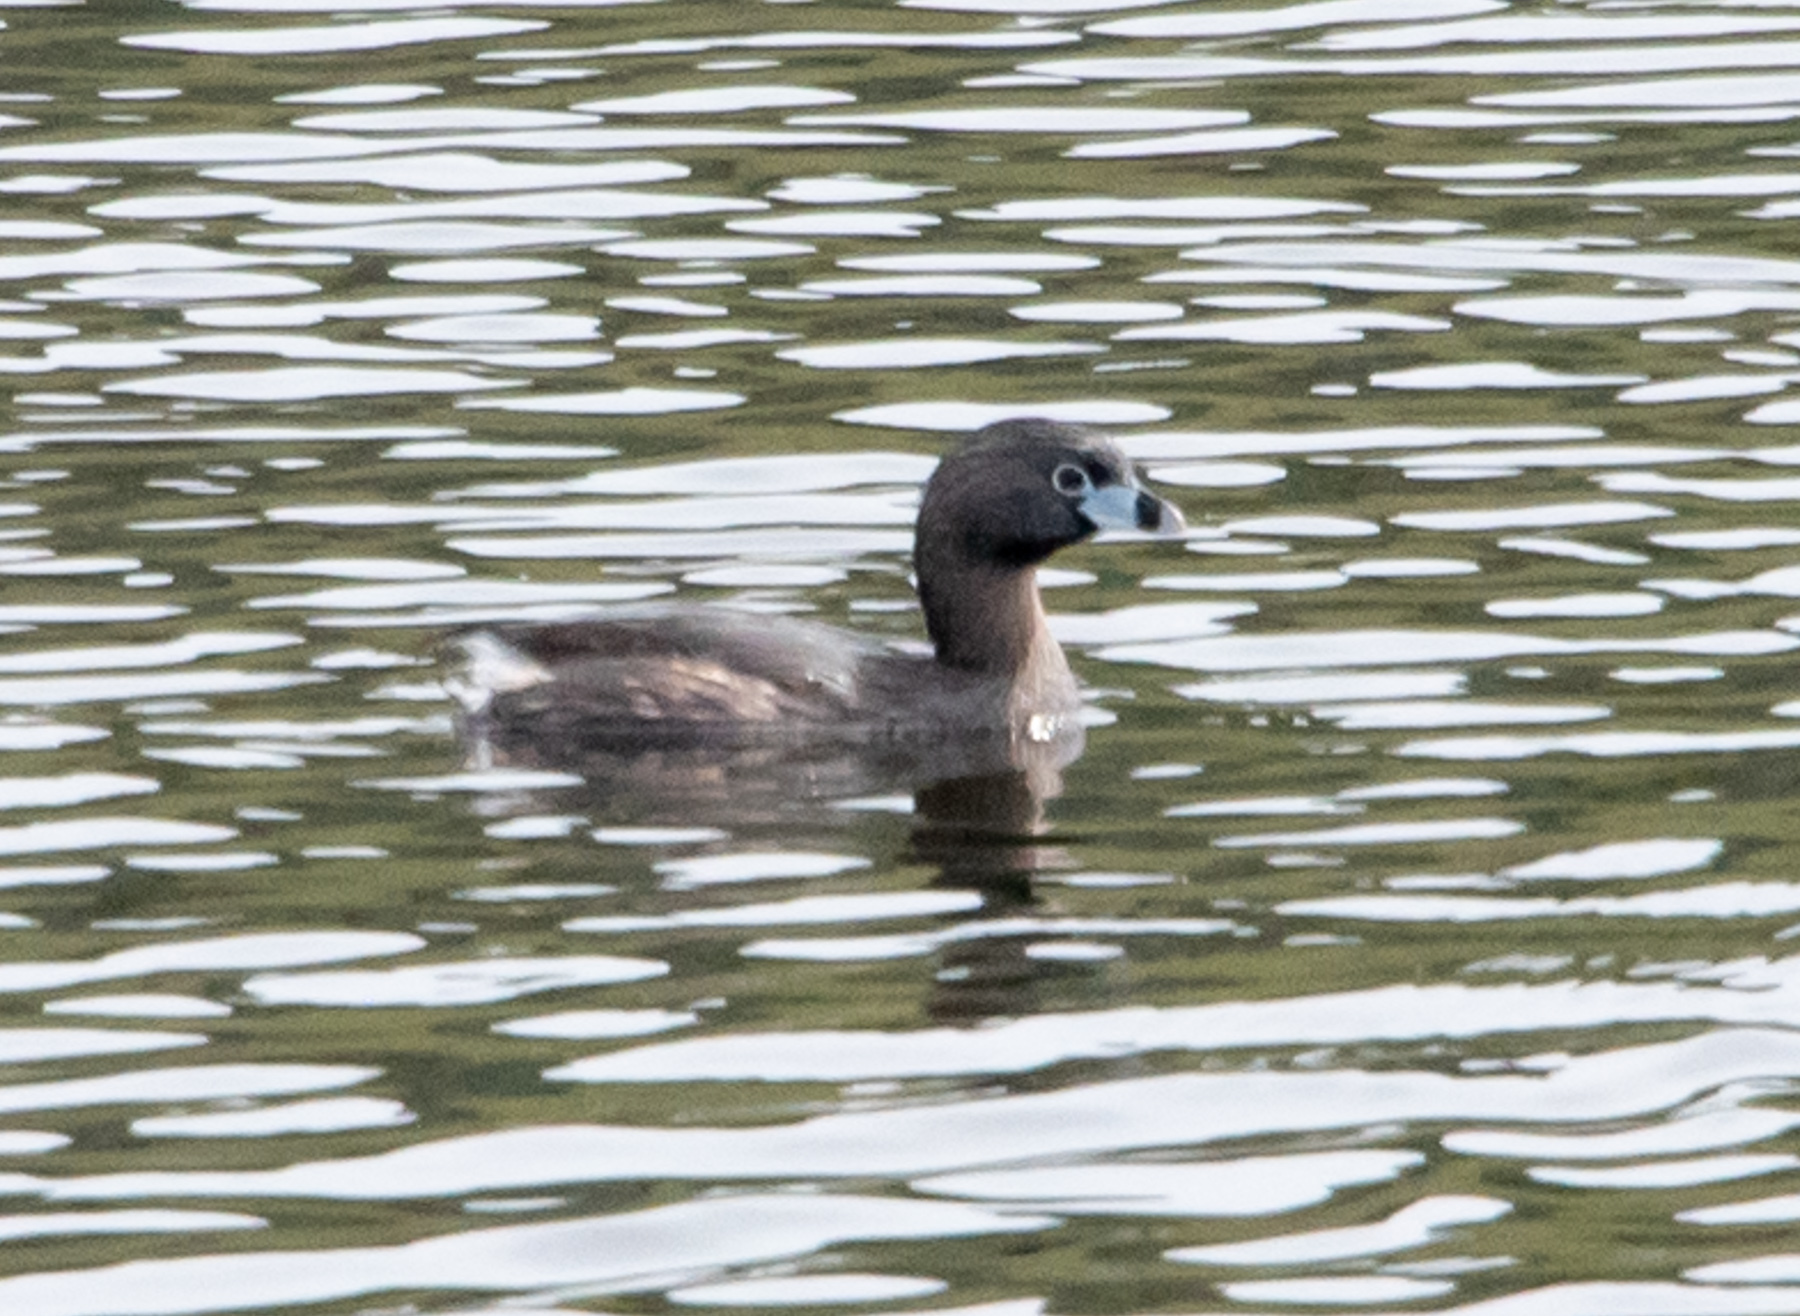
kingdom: Animalia
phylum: Chordata
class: Aves
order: Podicipediformes
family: Podicipedidae
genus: Podilymbus
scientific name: Podilymbus podiceps
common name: Pied-billed grebe
